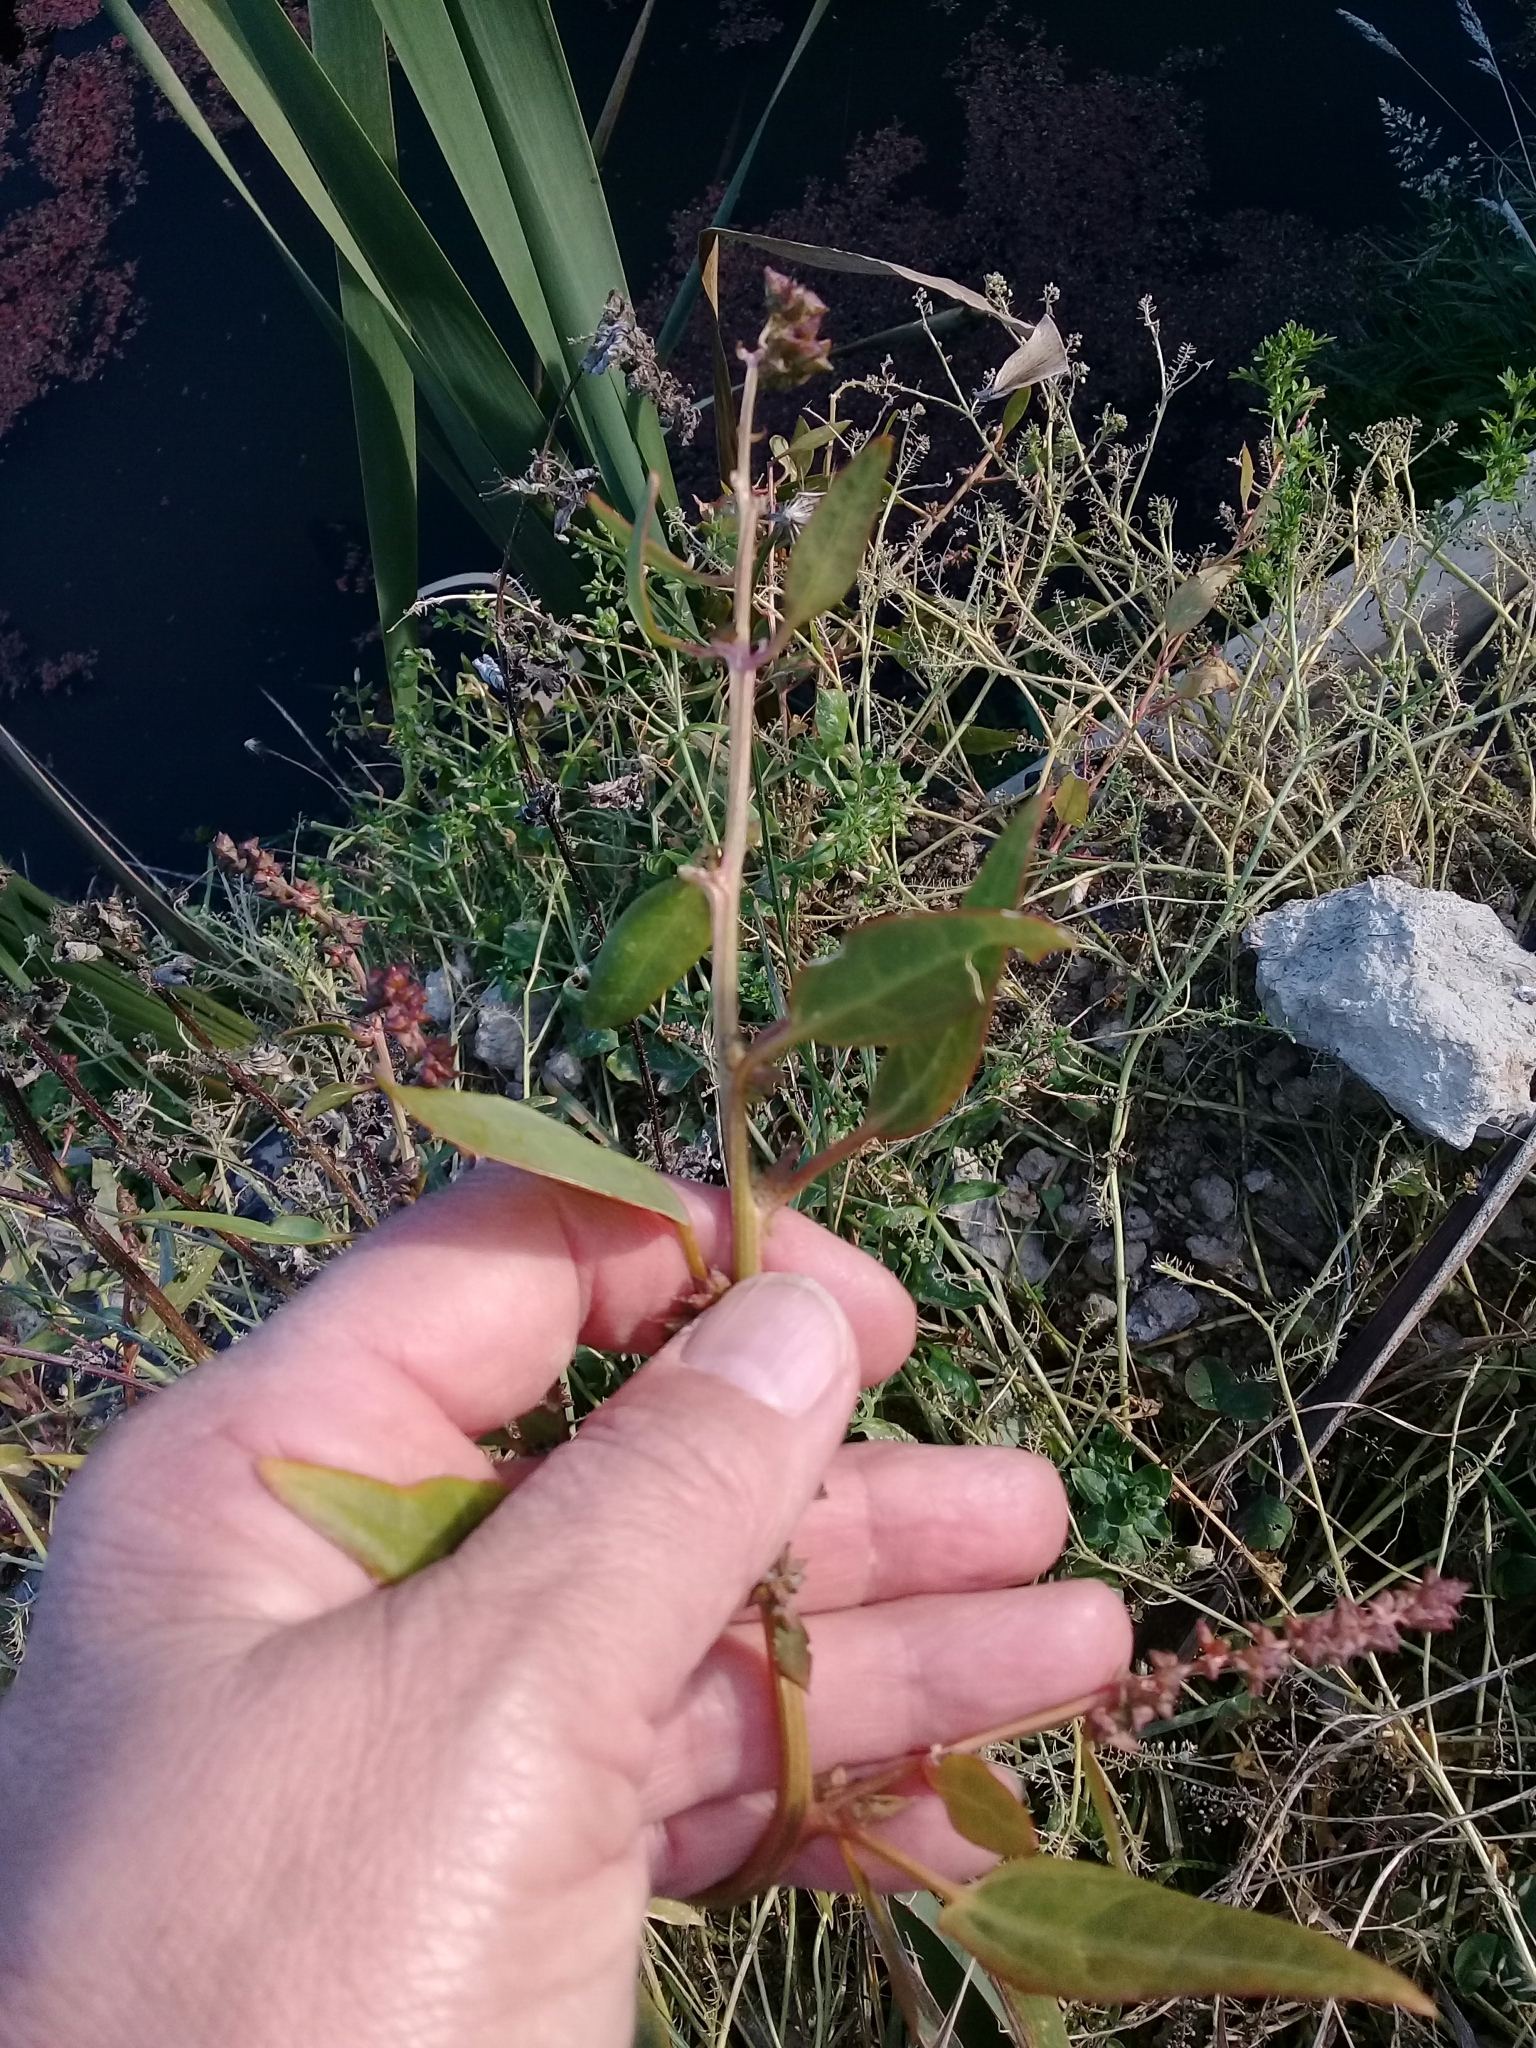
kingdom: Plantae
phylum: Tracheophyta
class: Magnoliopsida
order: Caryophyllales
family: Amaranthaceae
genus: Atriplex
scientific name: Atriplex patula
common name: Common orache
